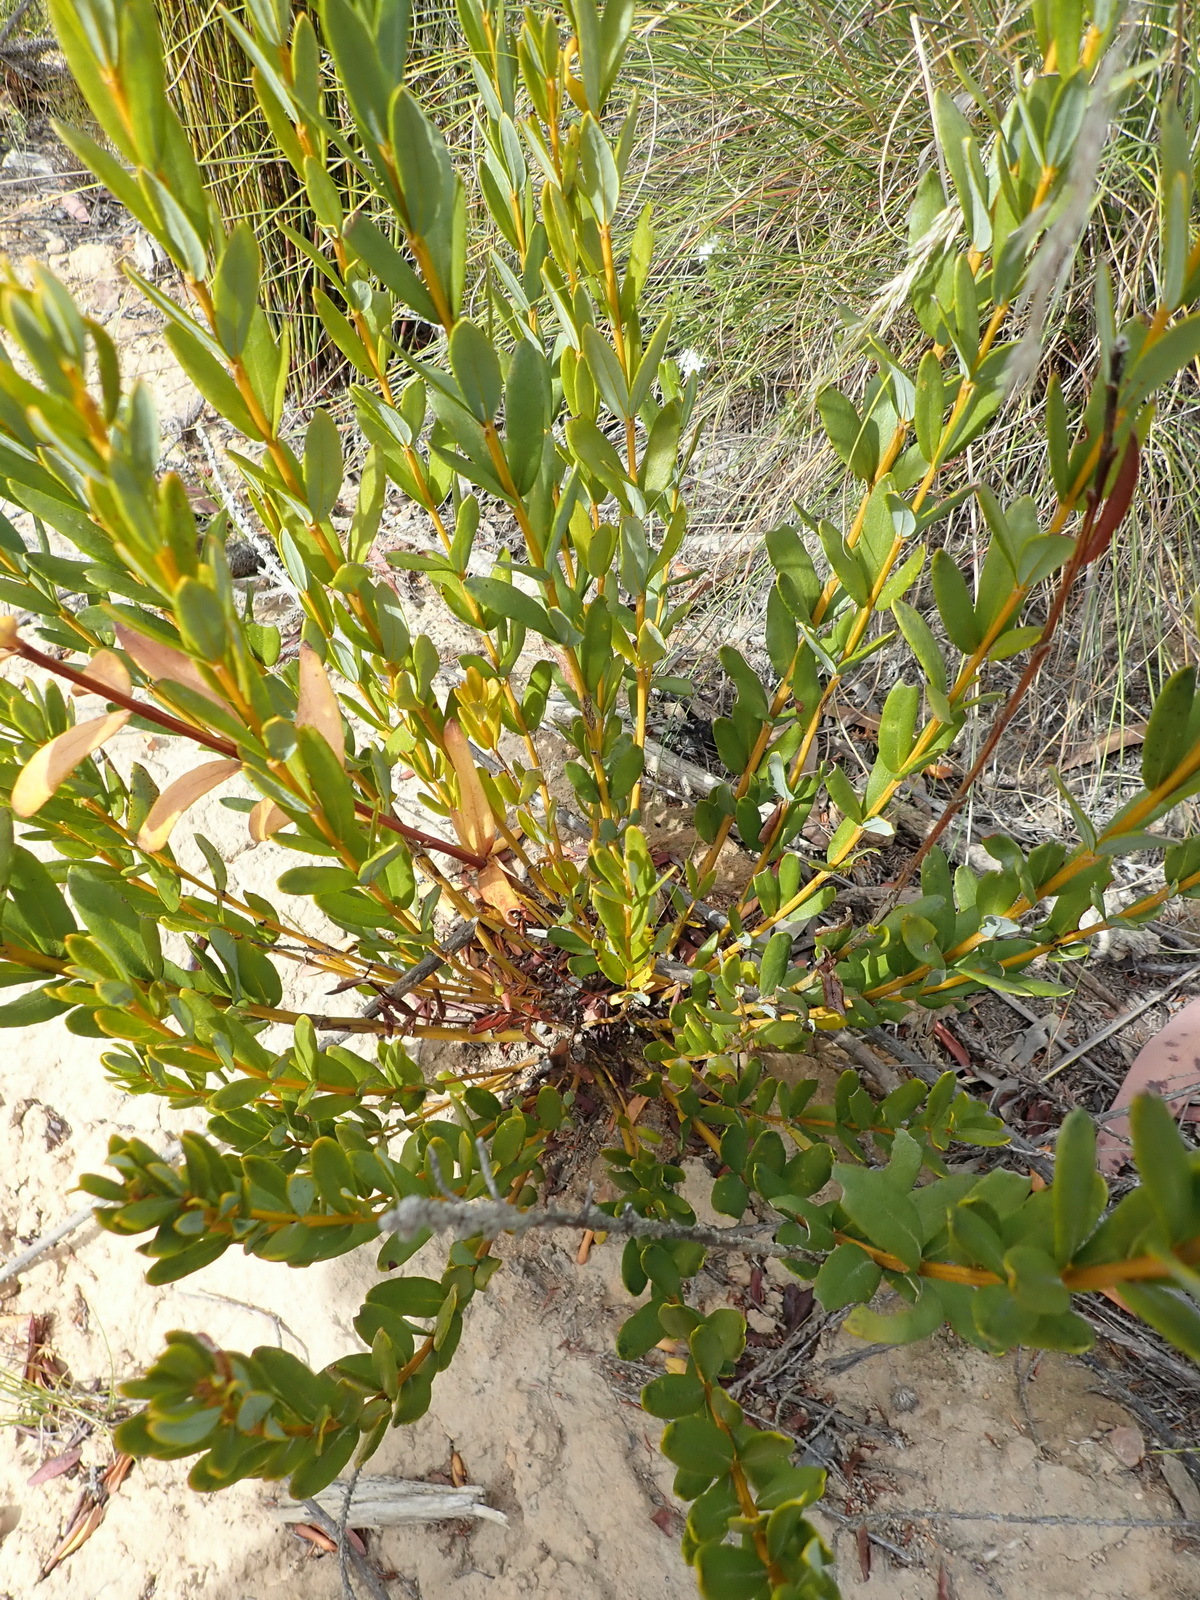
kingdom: Plantae
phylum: Tracheophyta
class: Magnoliopsida
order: Fabales
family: Fabaceae
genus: Cyclopia
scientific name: Cyclopia intermedia
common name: Mountain tea
